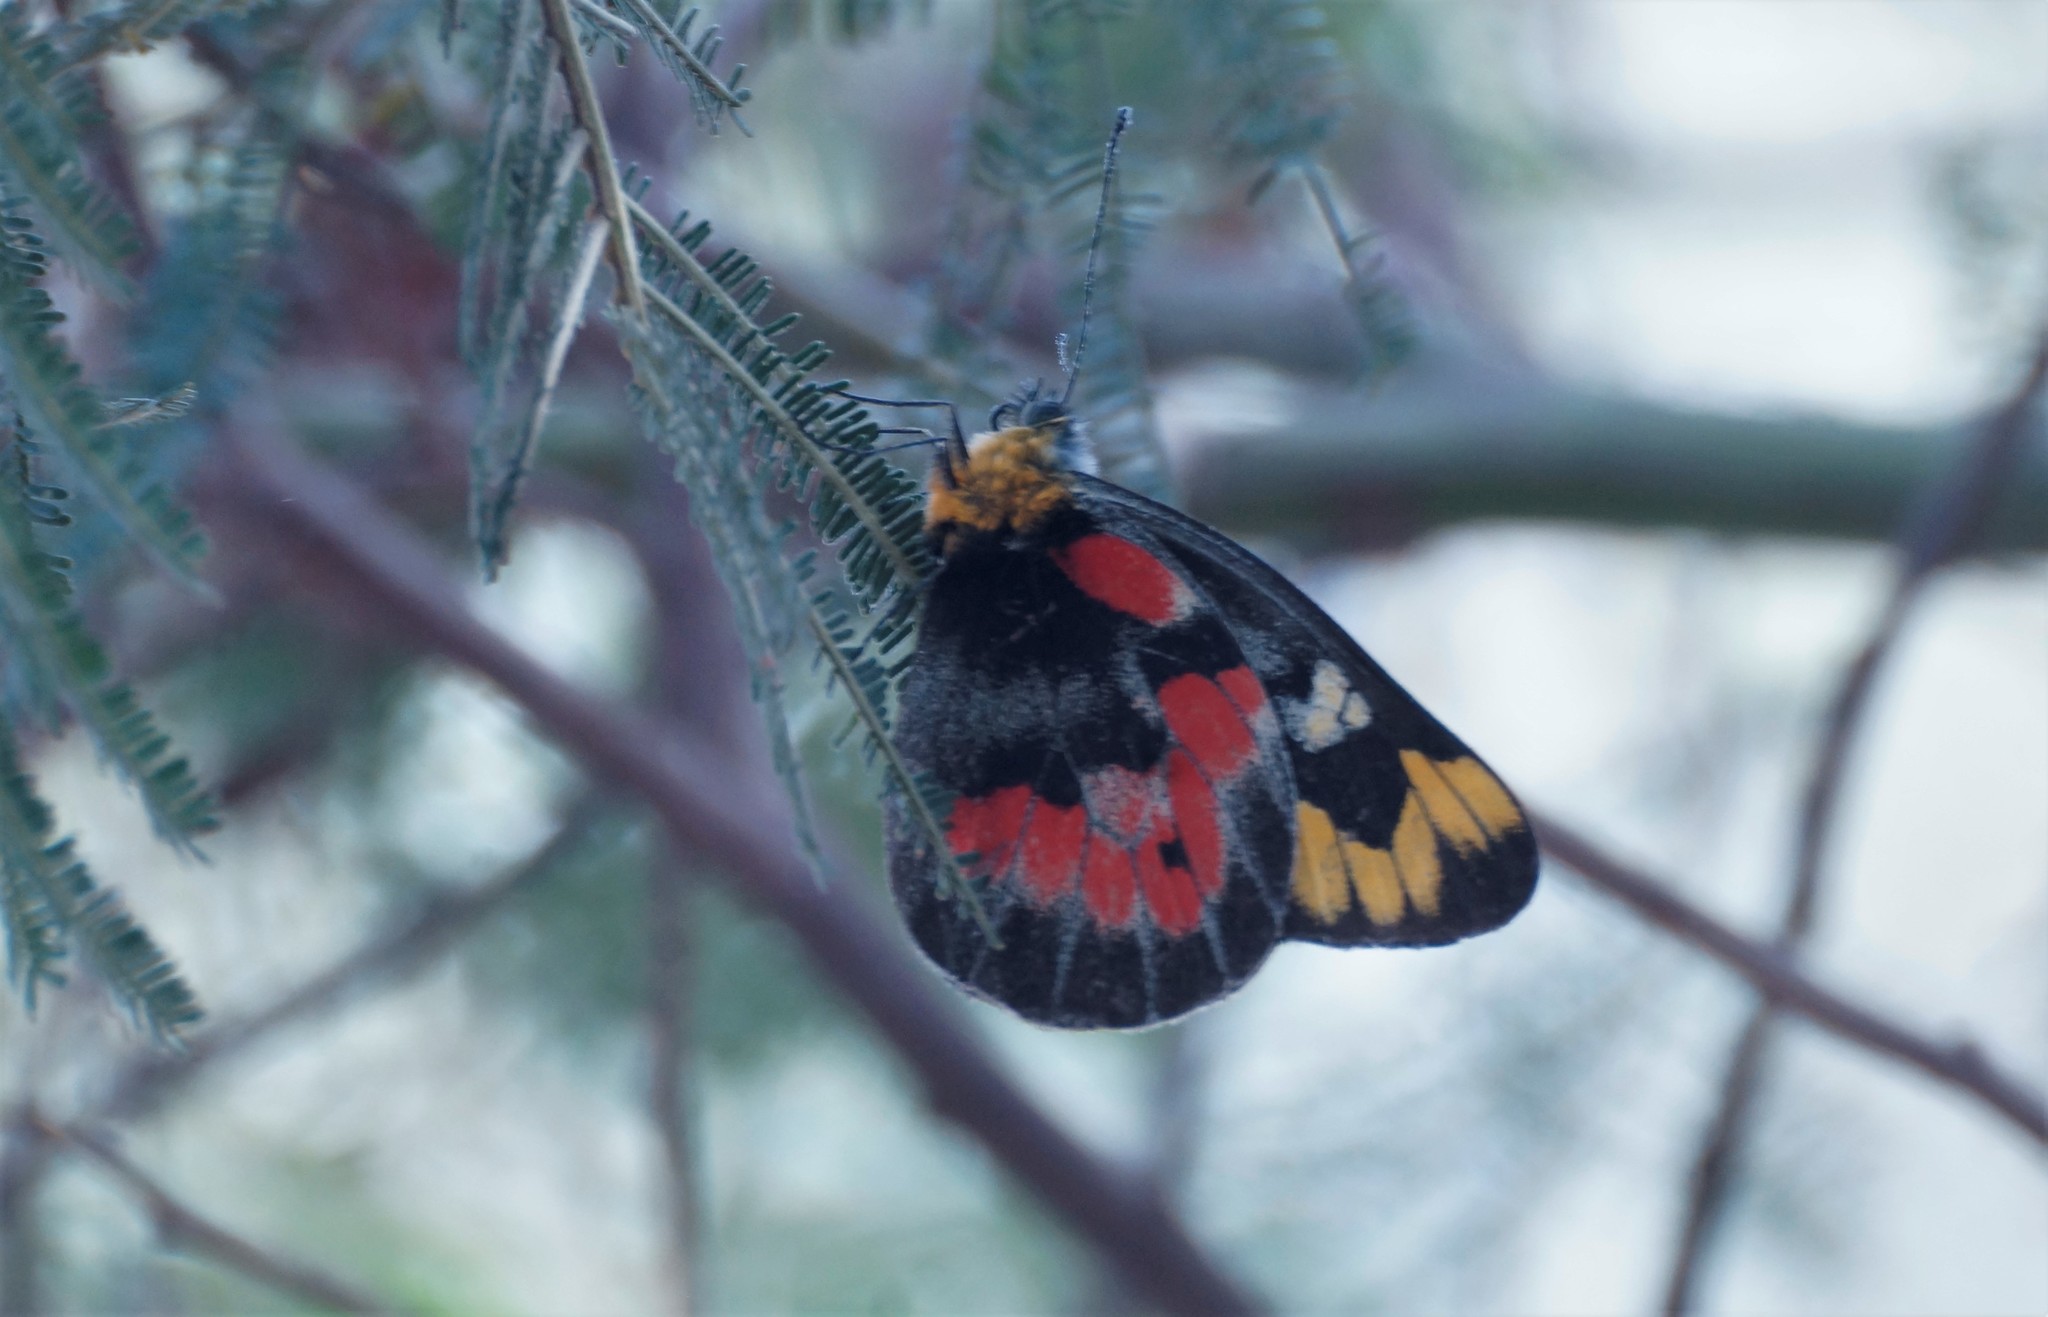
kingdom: Animalia
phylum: Arthropoda
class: Insecta
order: Lepidoptera
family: Pieridae
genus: Delias
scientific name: Delias harpalyce
